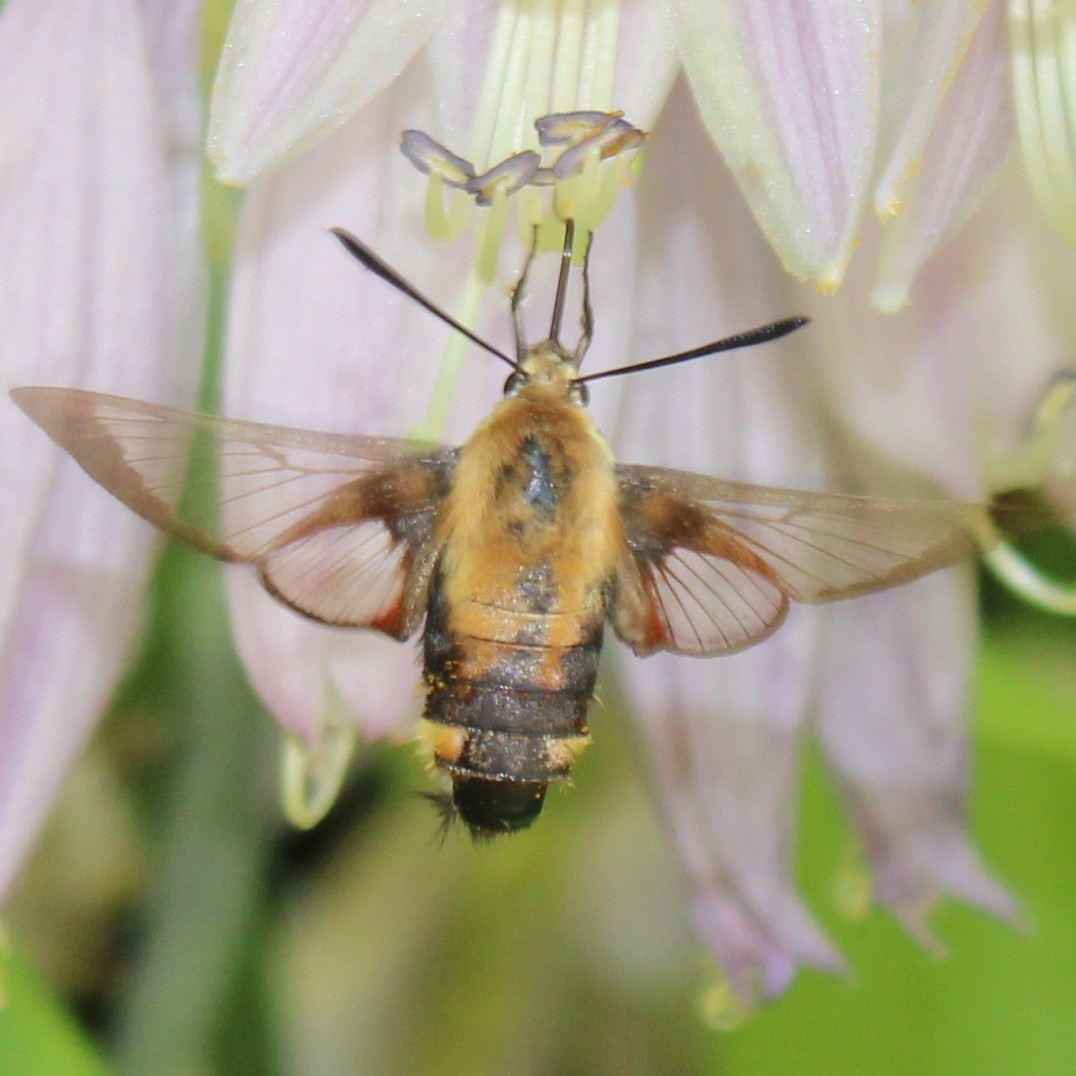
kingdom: Animalia
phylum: Arthropoda
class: Insecta
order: Lepidoptera
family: Sphingidae
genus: Hemaris
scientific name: Hemaris diffinis
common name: Bumblebee moth
